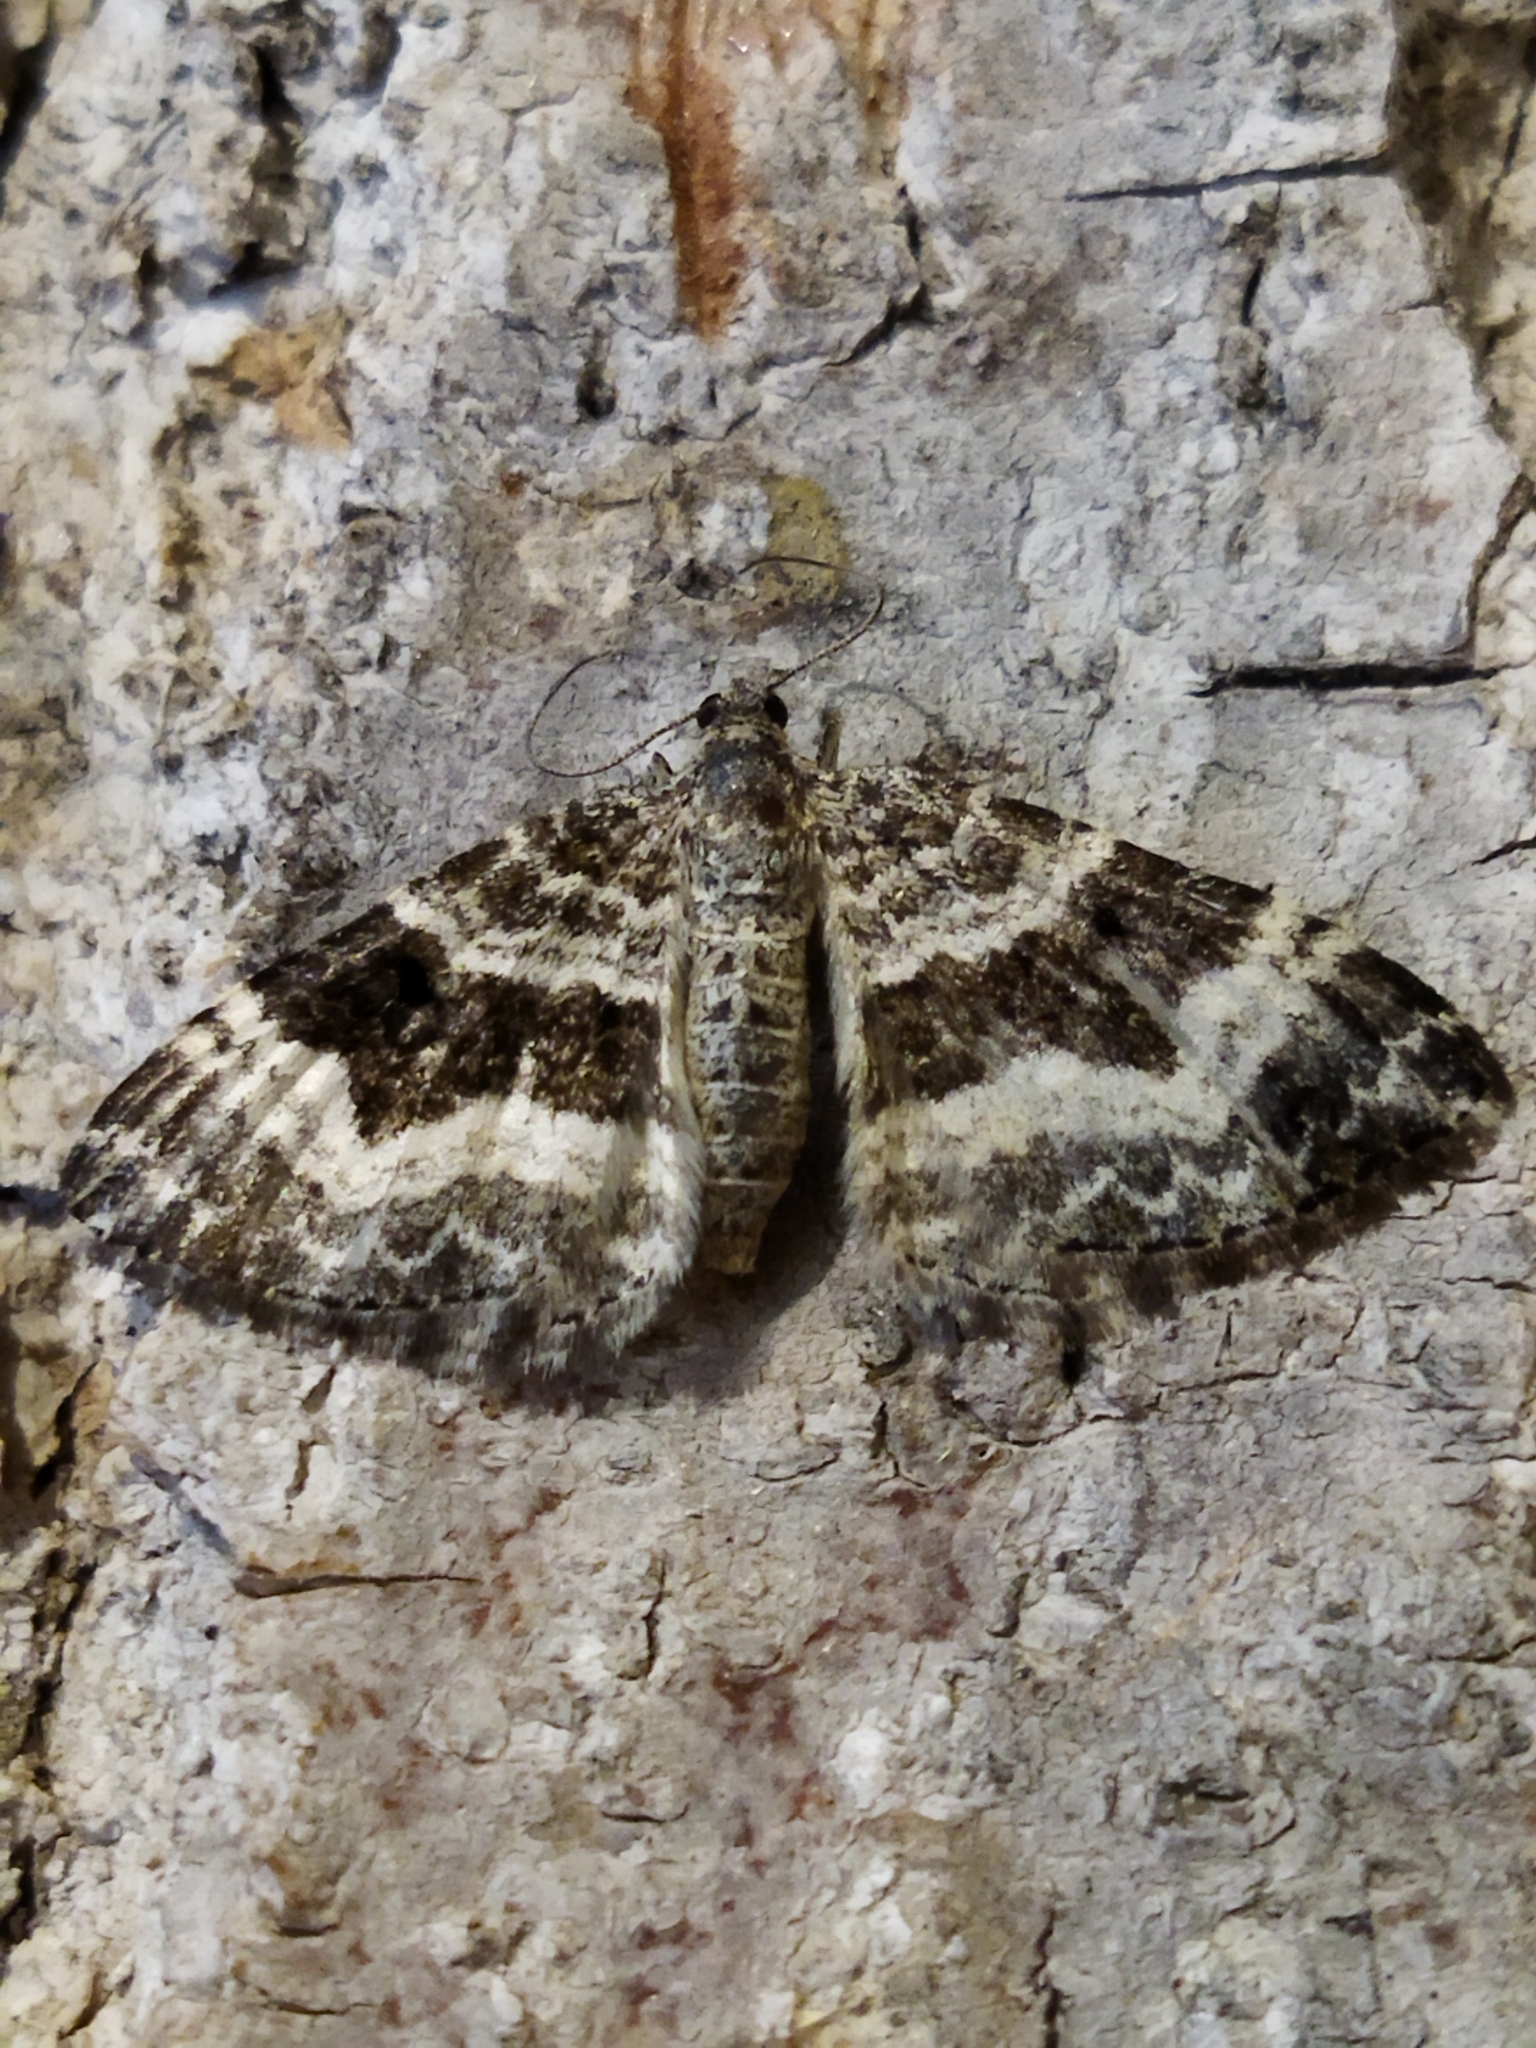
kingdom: Animalia
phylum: Arthropoda
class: Insecta
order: Lepidoptera
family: Geometridae
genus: Epirrhoe
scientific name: Epirrhoe alternata
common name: Common carpet
